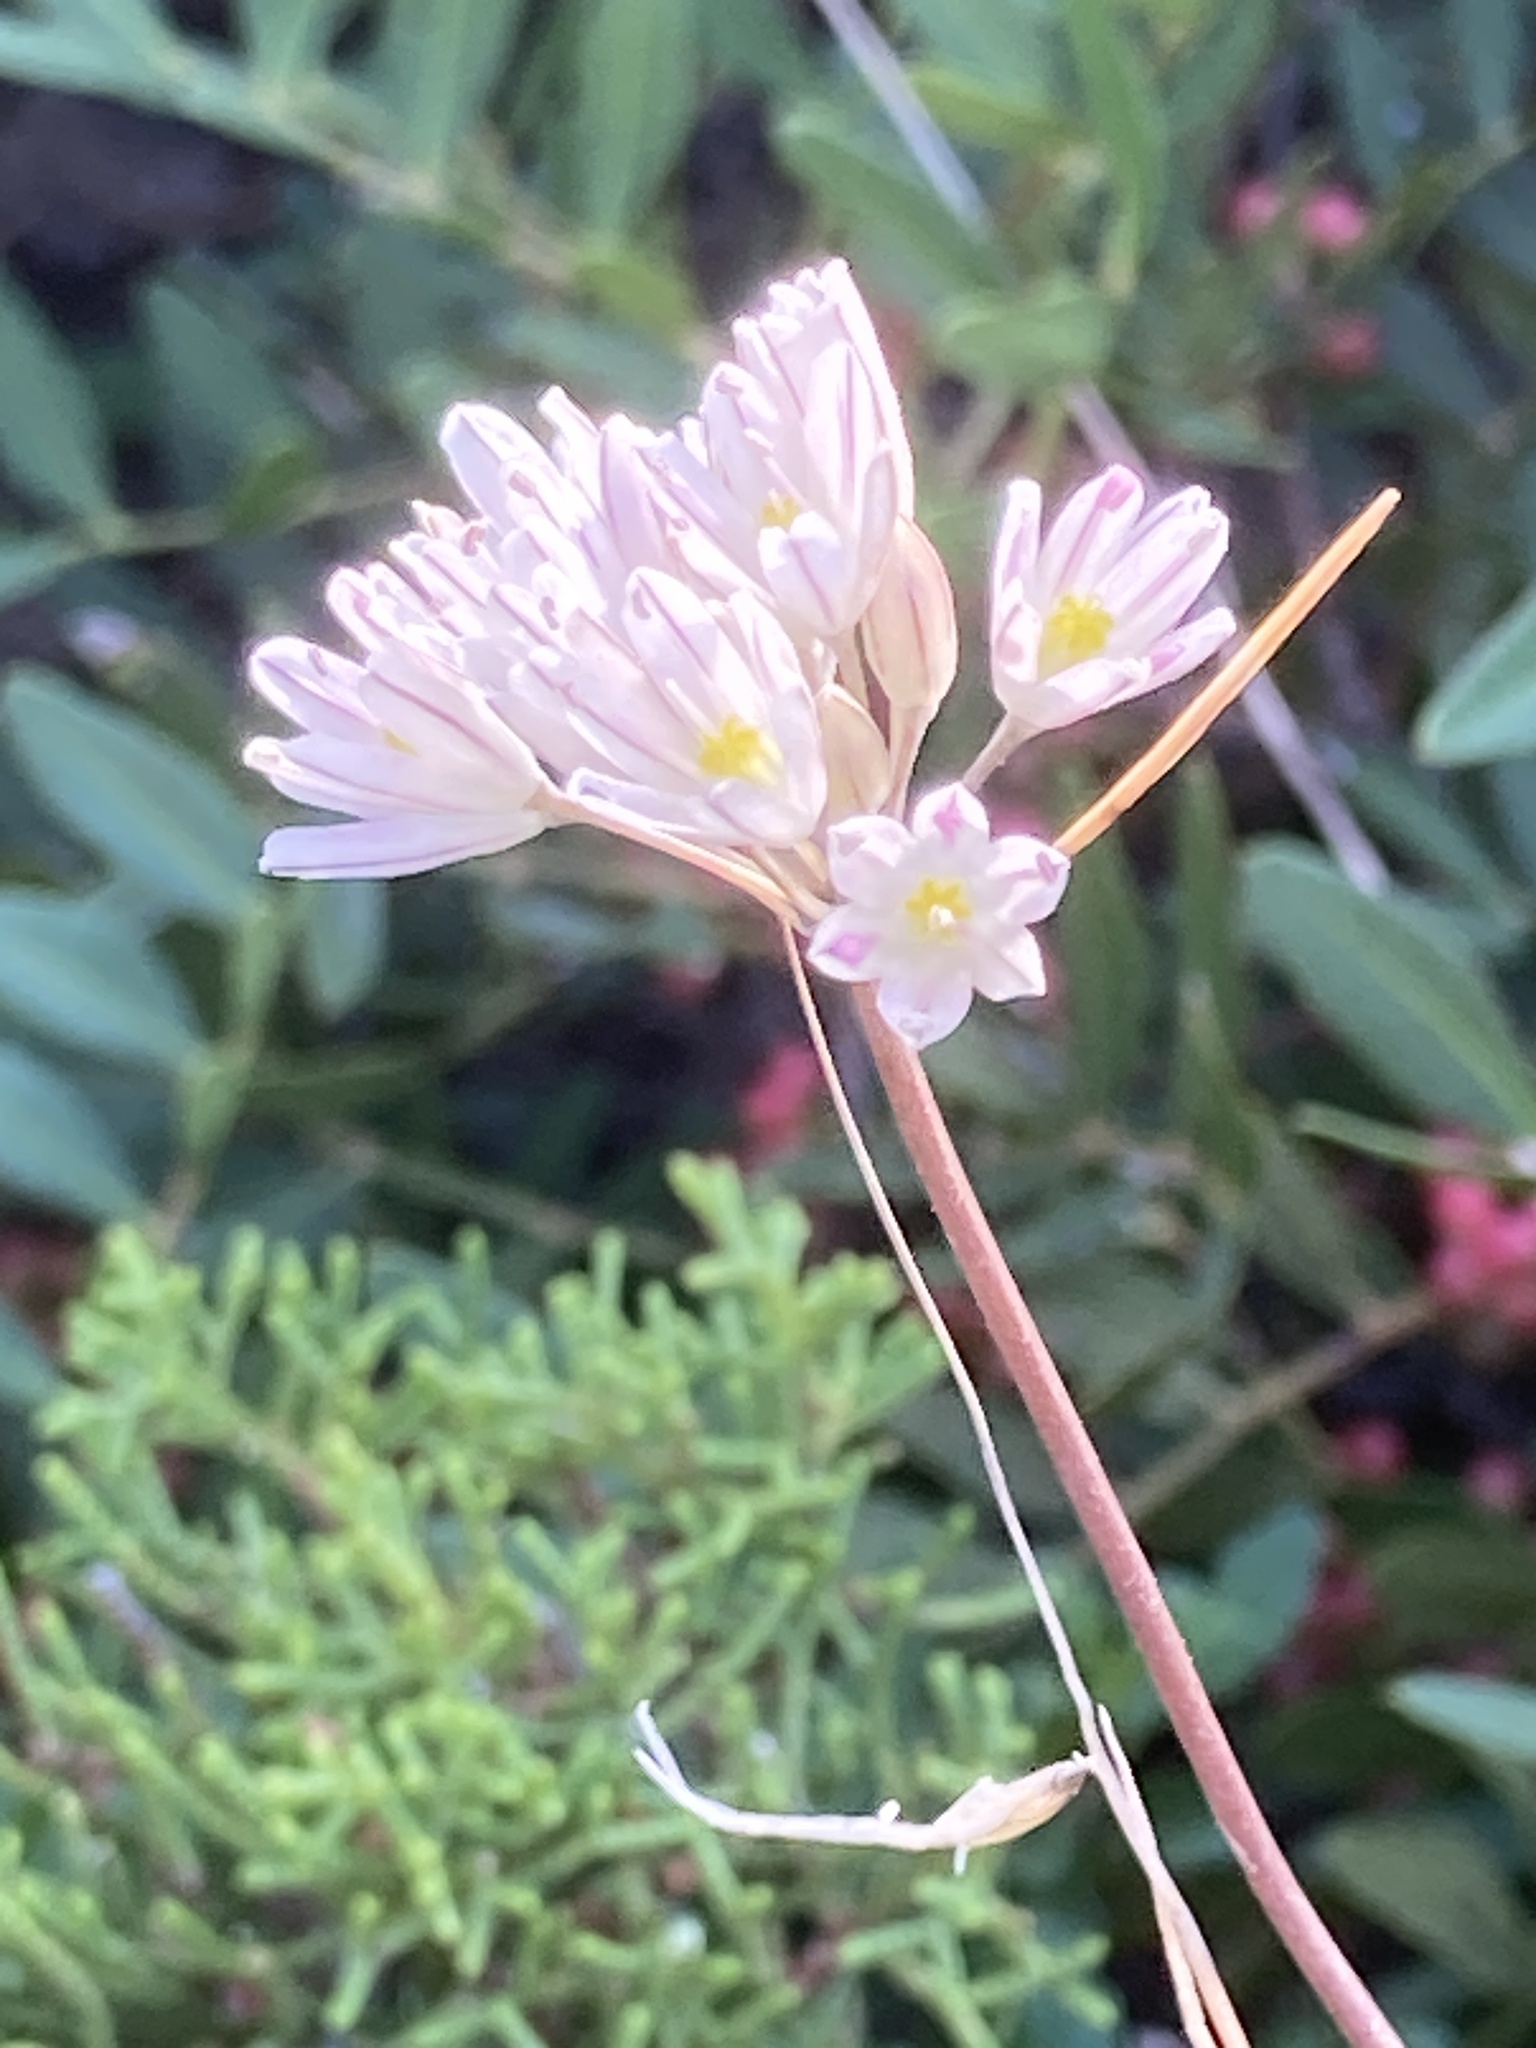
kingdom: Plantae
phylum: Tracheophyta
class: Liliopsida
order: Asparagales
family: Amaryllidaceae
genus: Allium
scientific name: Allium apolloniensis
